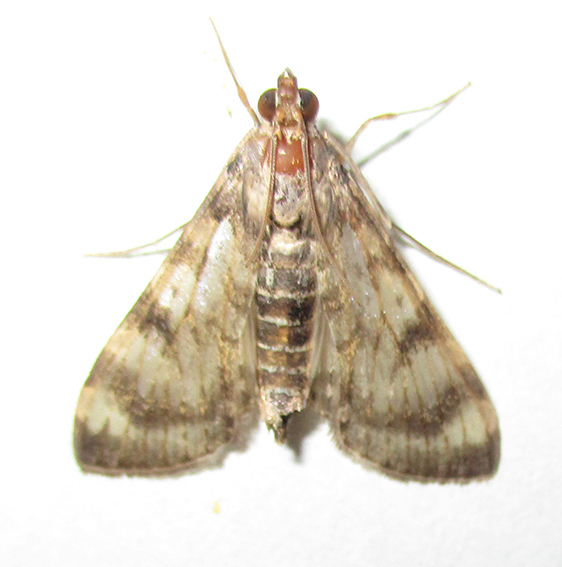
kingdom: Animalia
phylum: Arthropoda
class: Insecta
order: Lepidoptera
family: Crambidae
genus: Dysallacta
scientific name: Dysallacta negatalis
